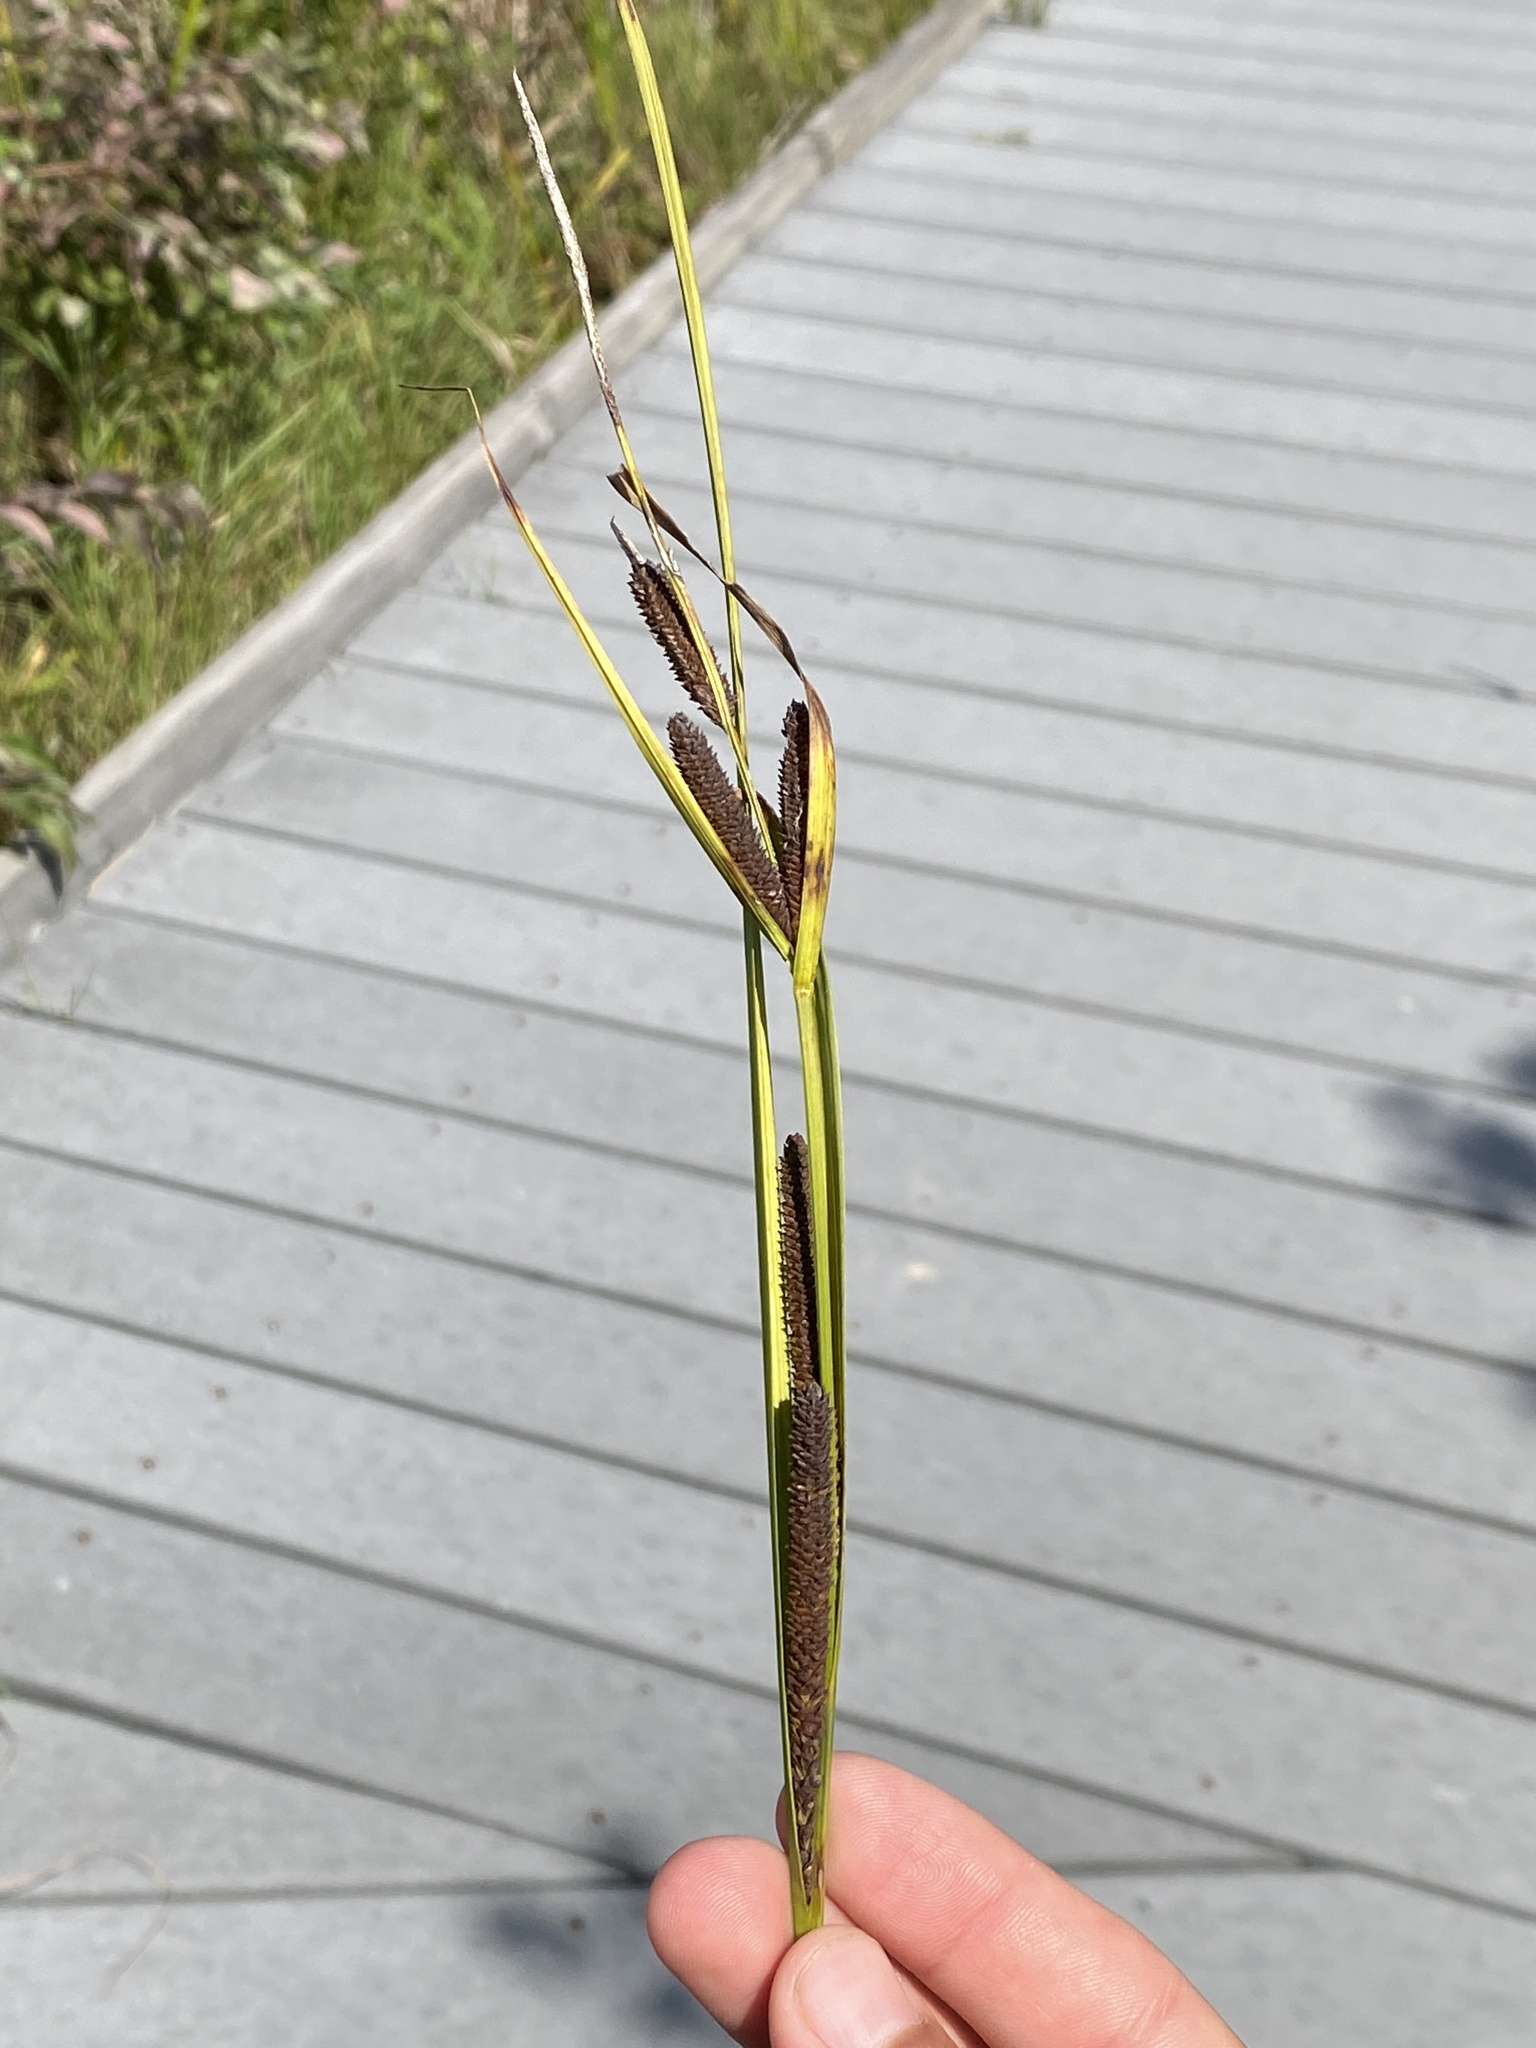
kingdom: Plantae
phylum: Tracheophyta
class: Liliopsida
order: Poales
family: Cyperaceae
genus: Carex
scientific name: Carex aquatilis
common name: Water sedge
